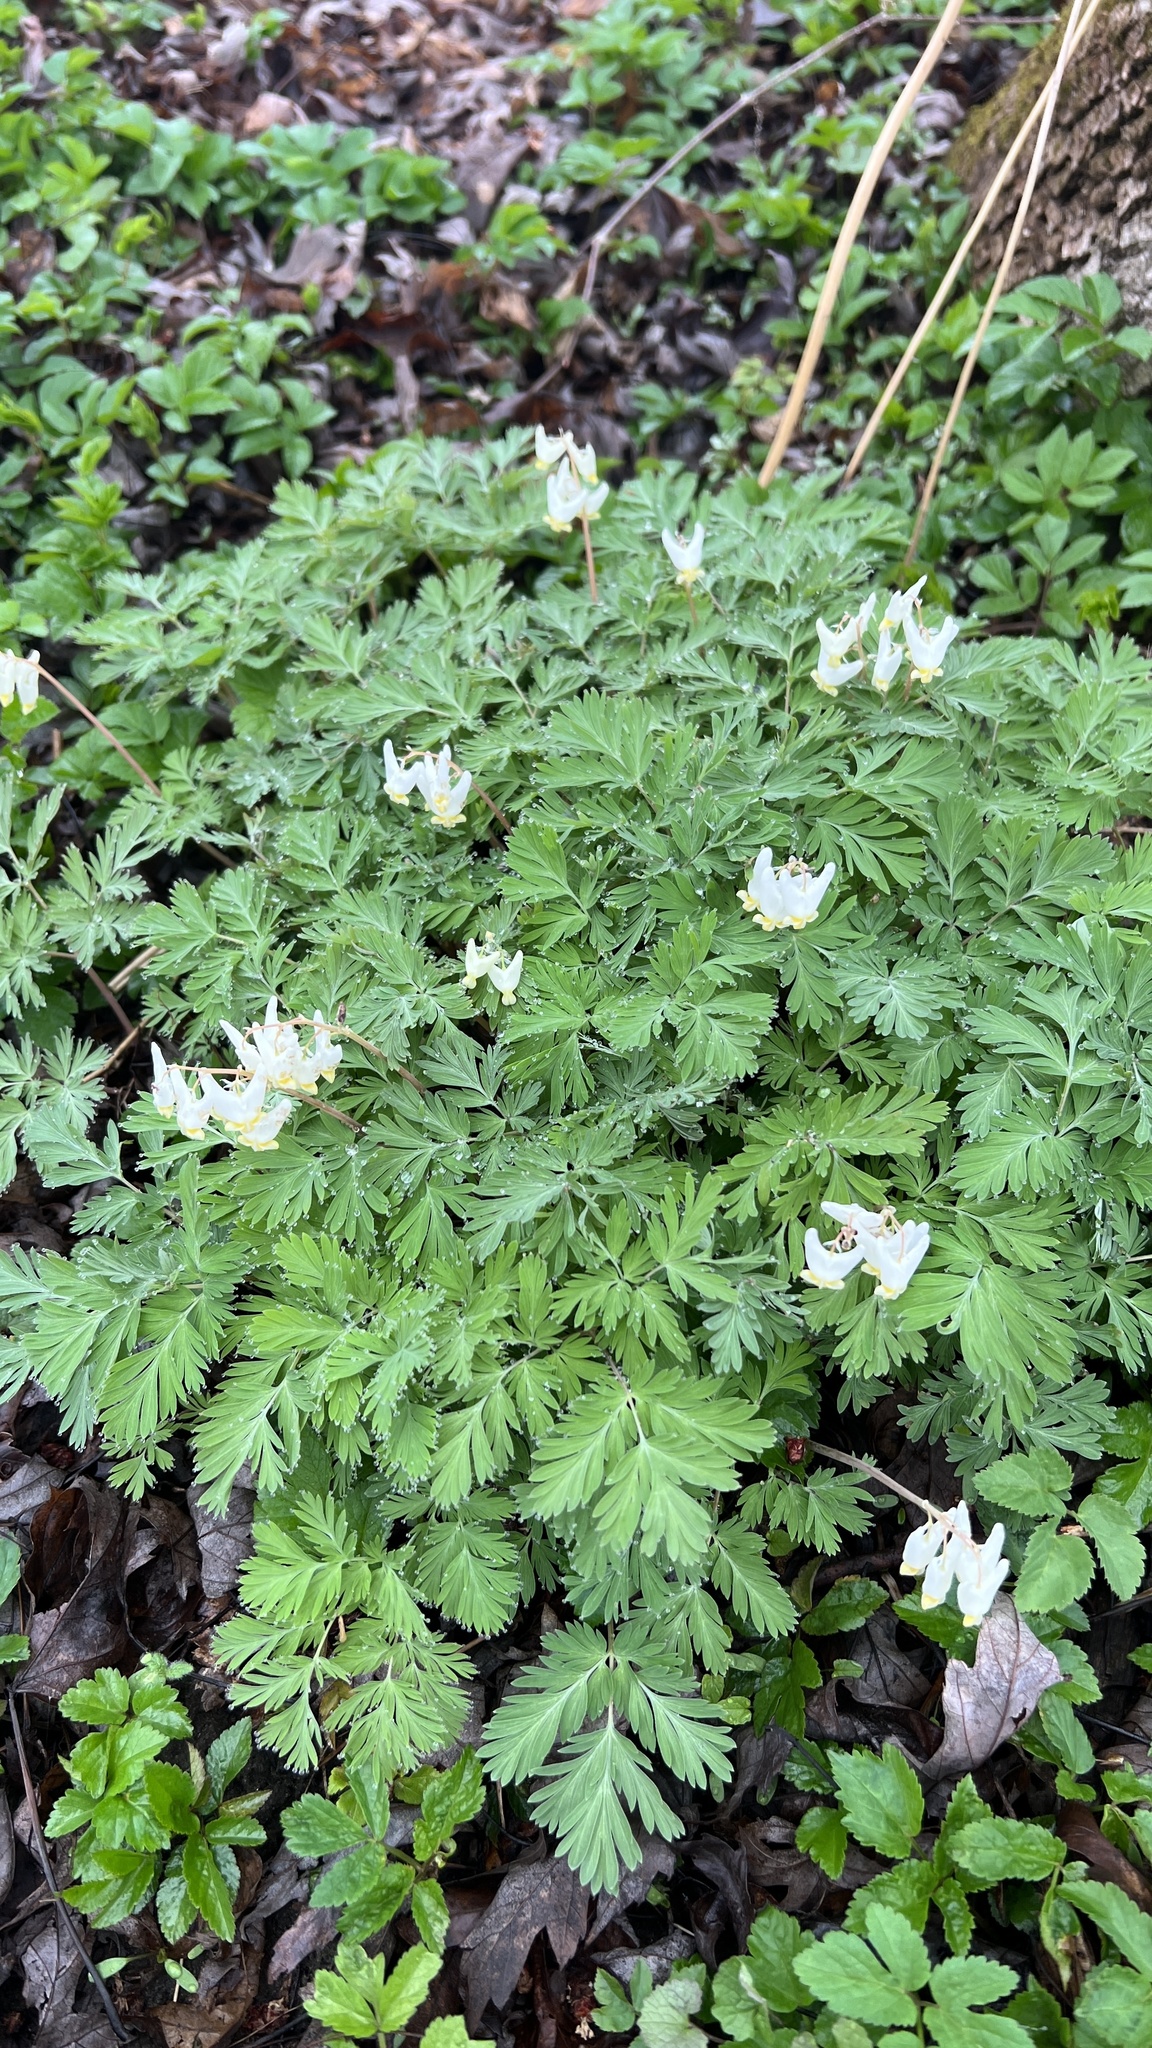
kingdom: Plantae
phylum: Tracheophyta
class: Magnoliopsida
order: Ranunculales
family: Papaveraceae
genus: Dicentra
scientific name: Dicentra cucullaria
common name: Dutchman's breeches
